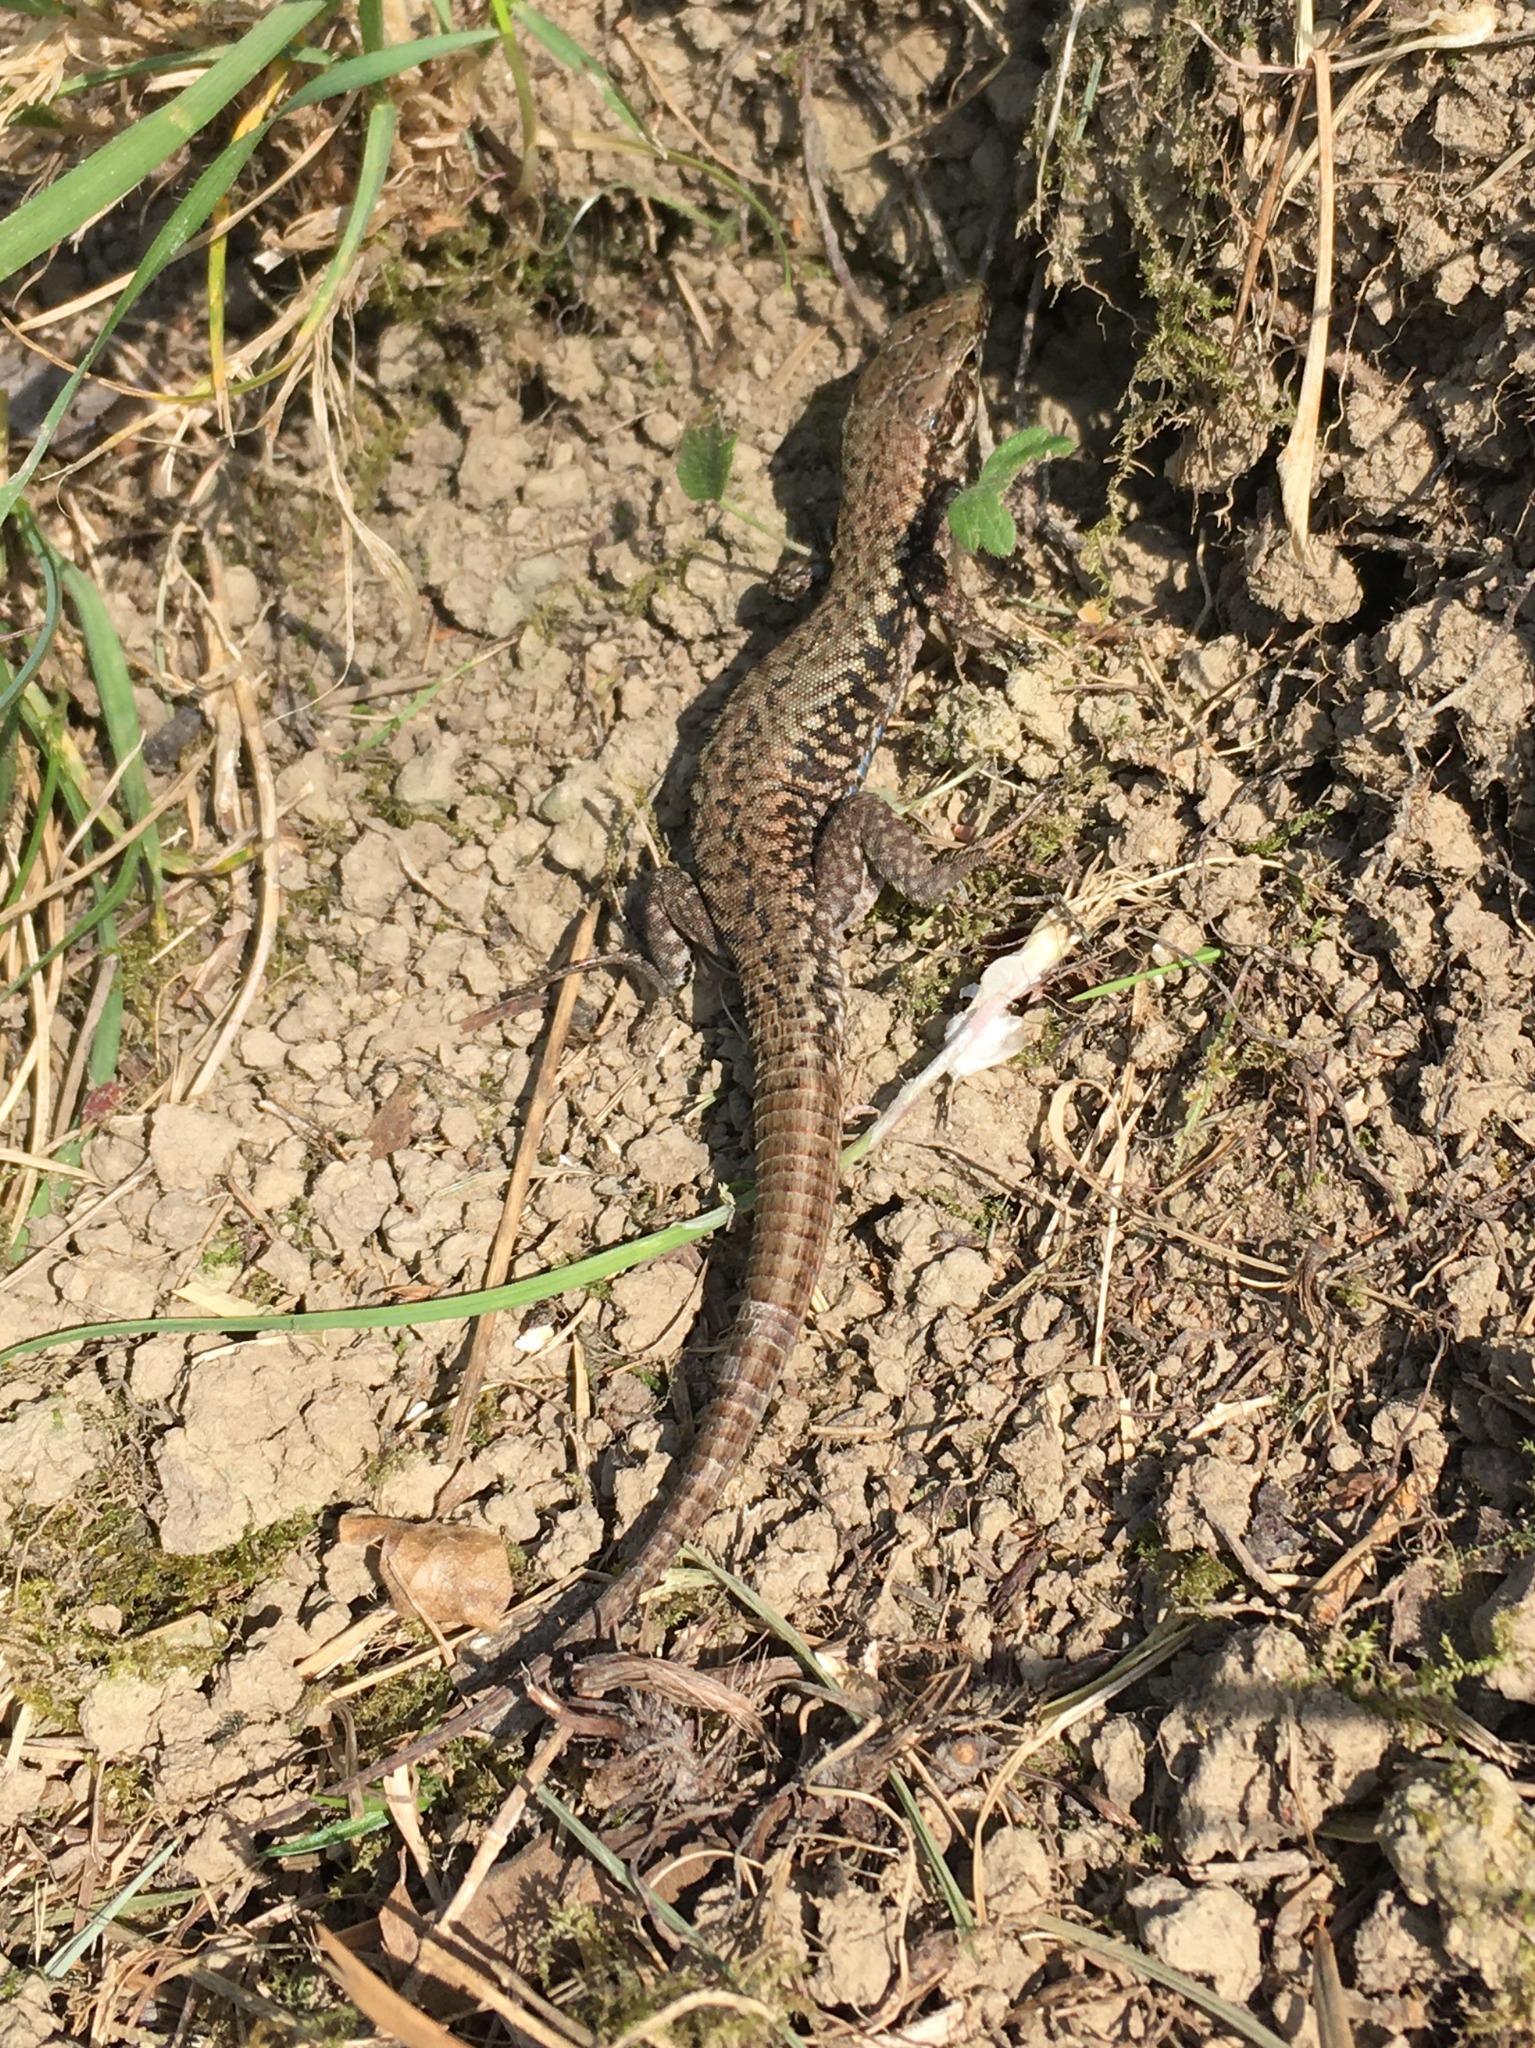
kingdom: Animalia
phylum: Chordata
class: Squamata
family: Lacertidae
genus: Podarcis
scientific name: Podarcis muralis
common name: Common wall lizard
